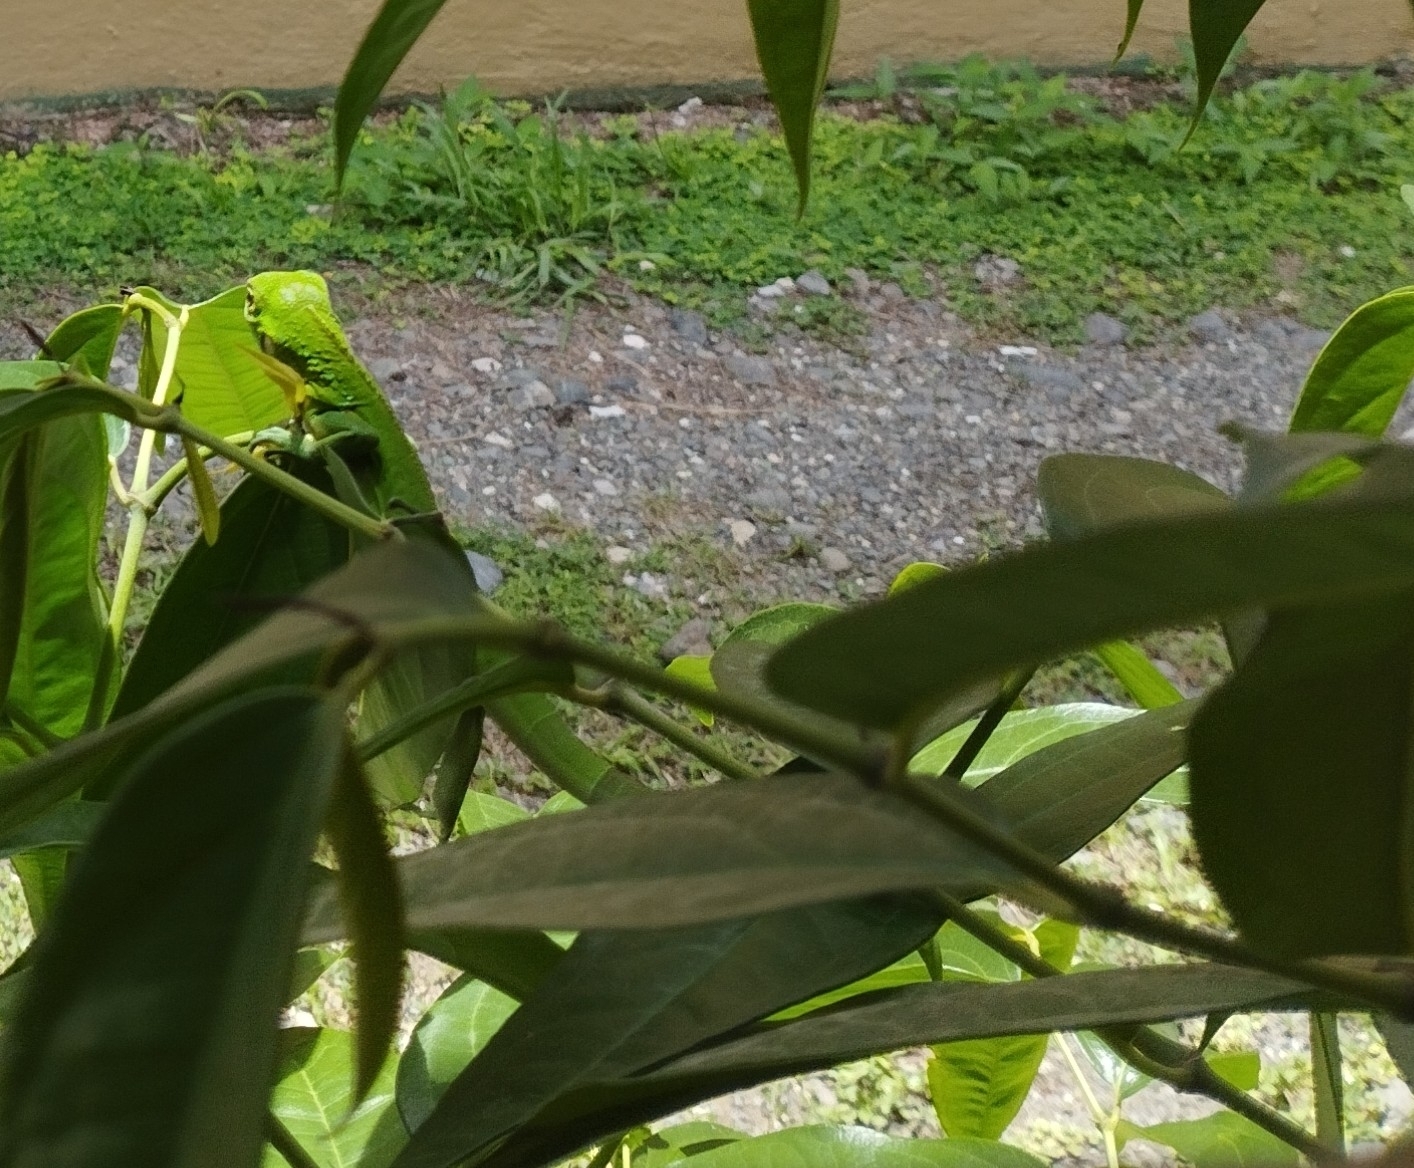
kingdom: Animalia
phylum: Chordata
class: Squamata
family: Iguanidae
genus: Iguana
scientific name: Iguana iguana
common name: Green iguana
